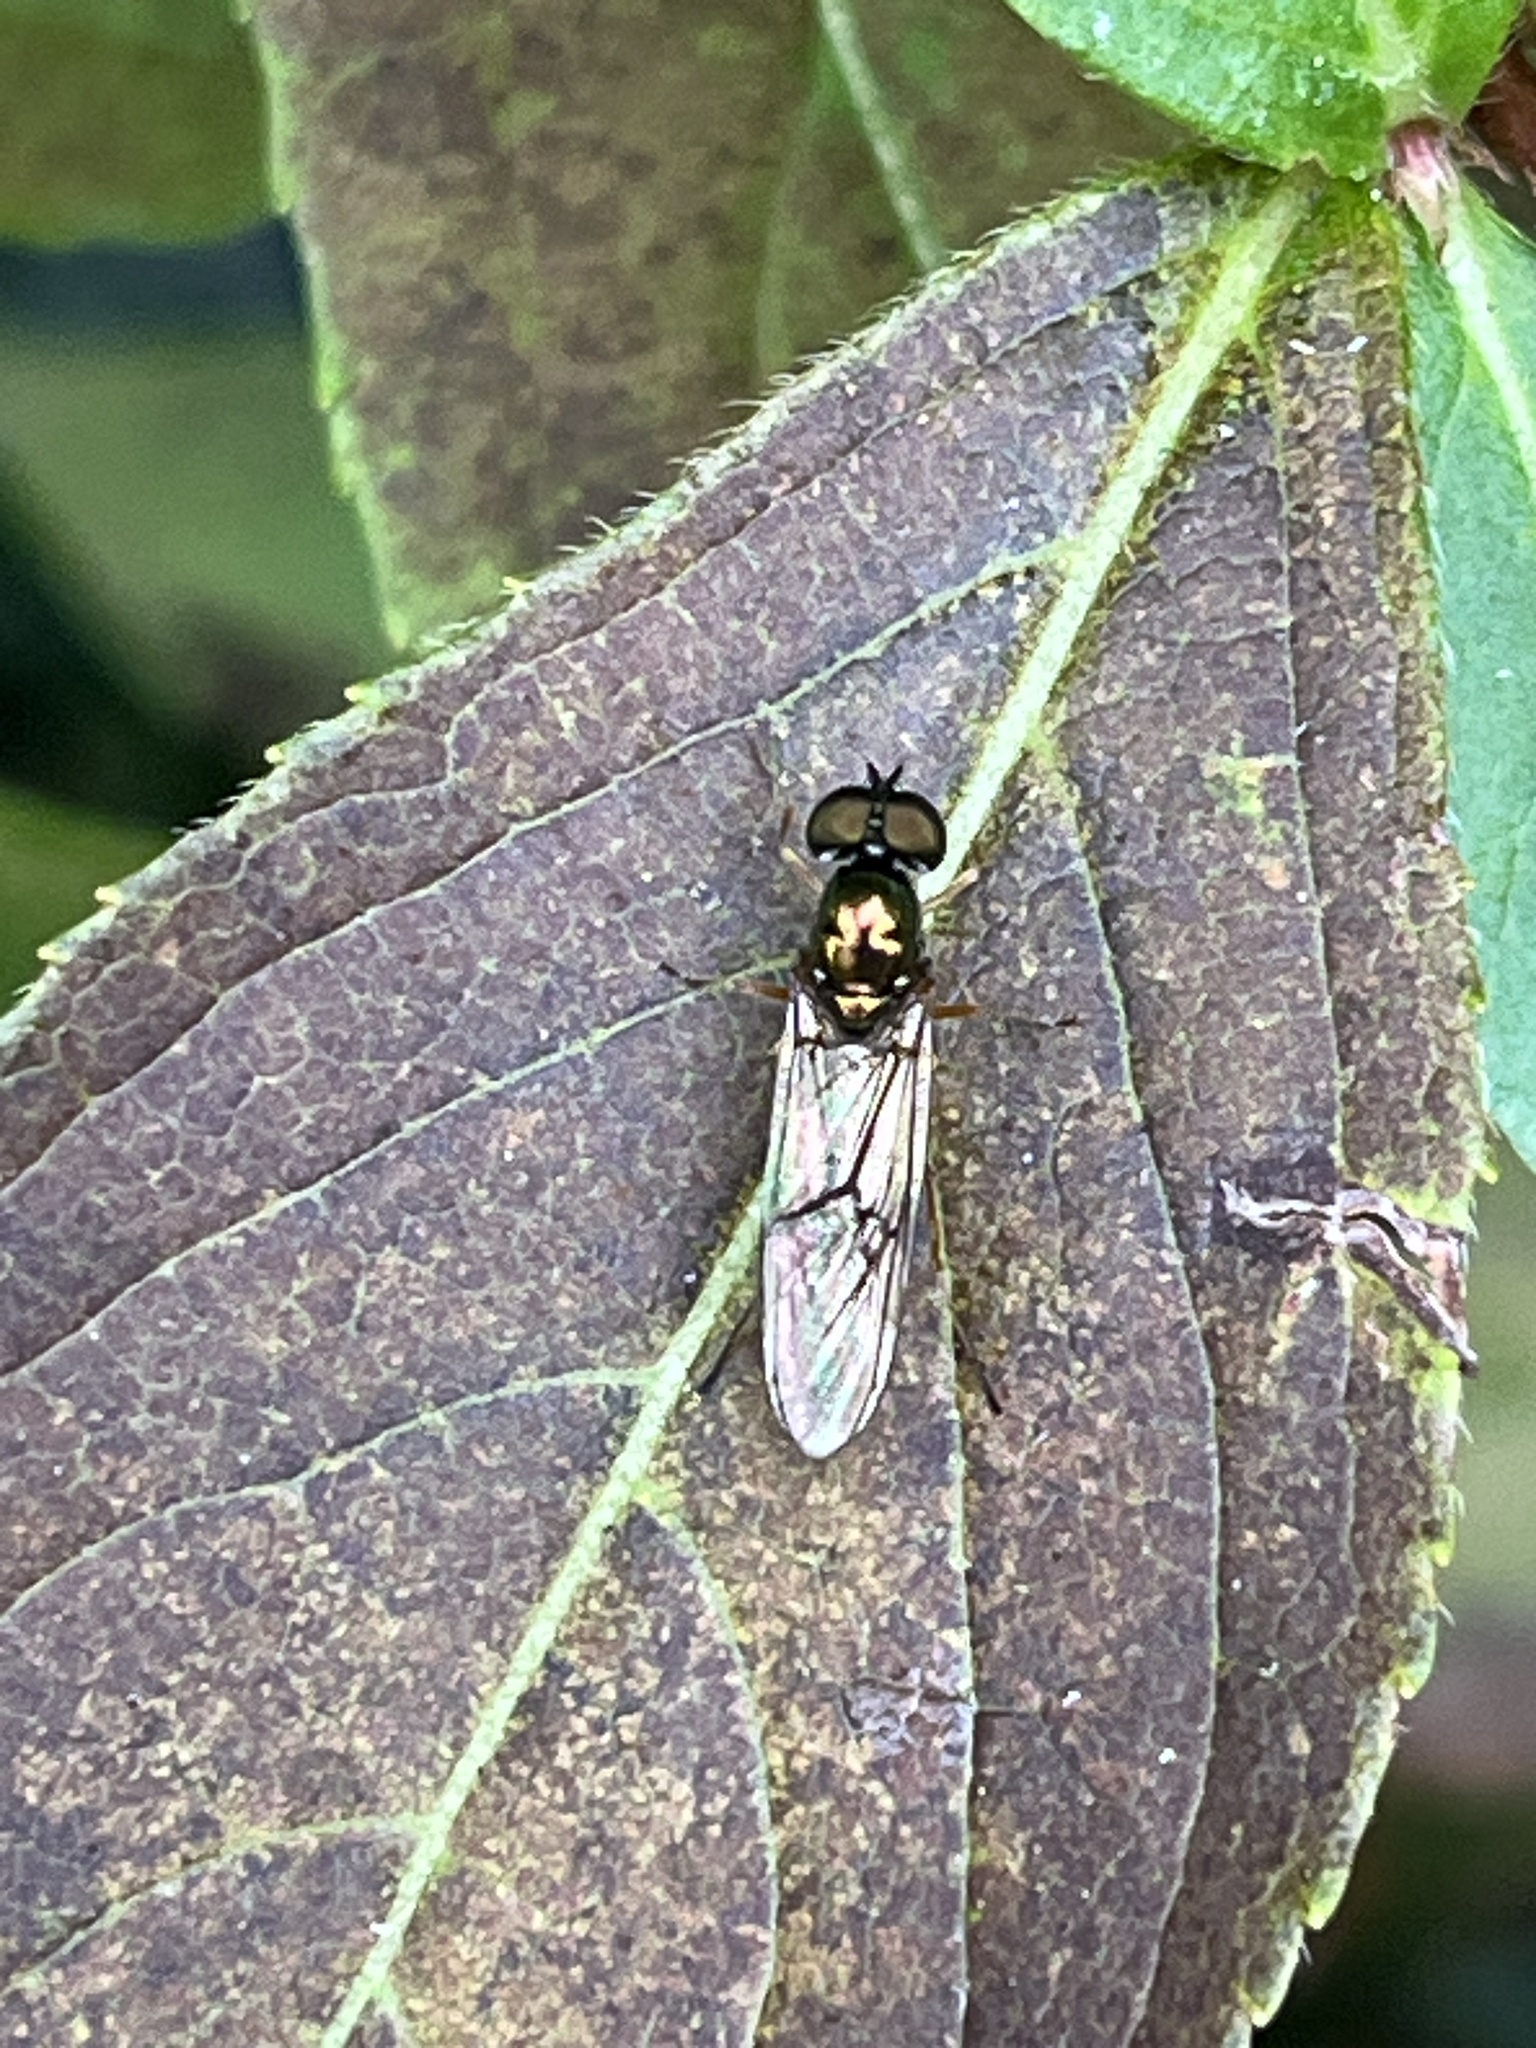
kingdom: Animalia
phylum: Arthropoda
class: Insecta
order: Diptera
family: Stratiomyidae
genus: Sargus
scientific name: Sargus bipunctatus
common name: Twin-spot centurion
